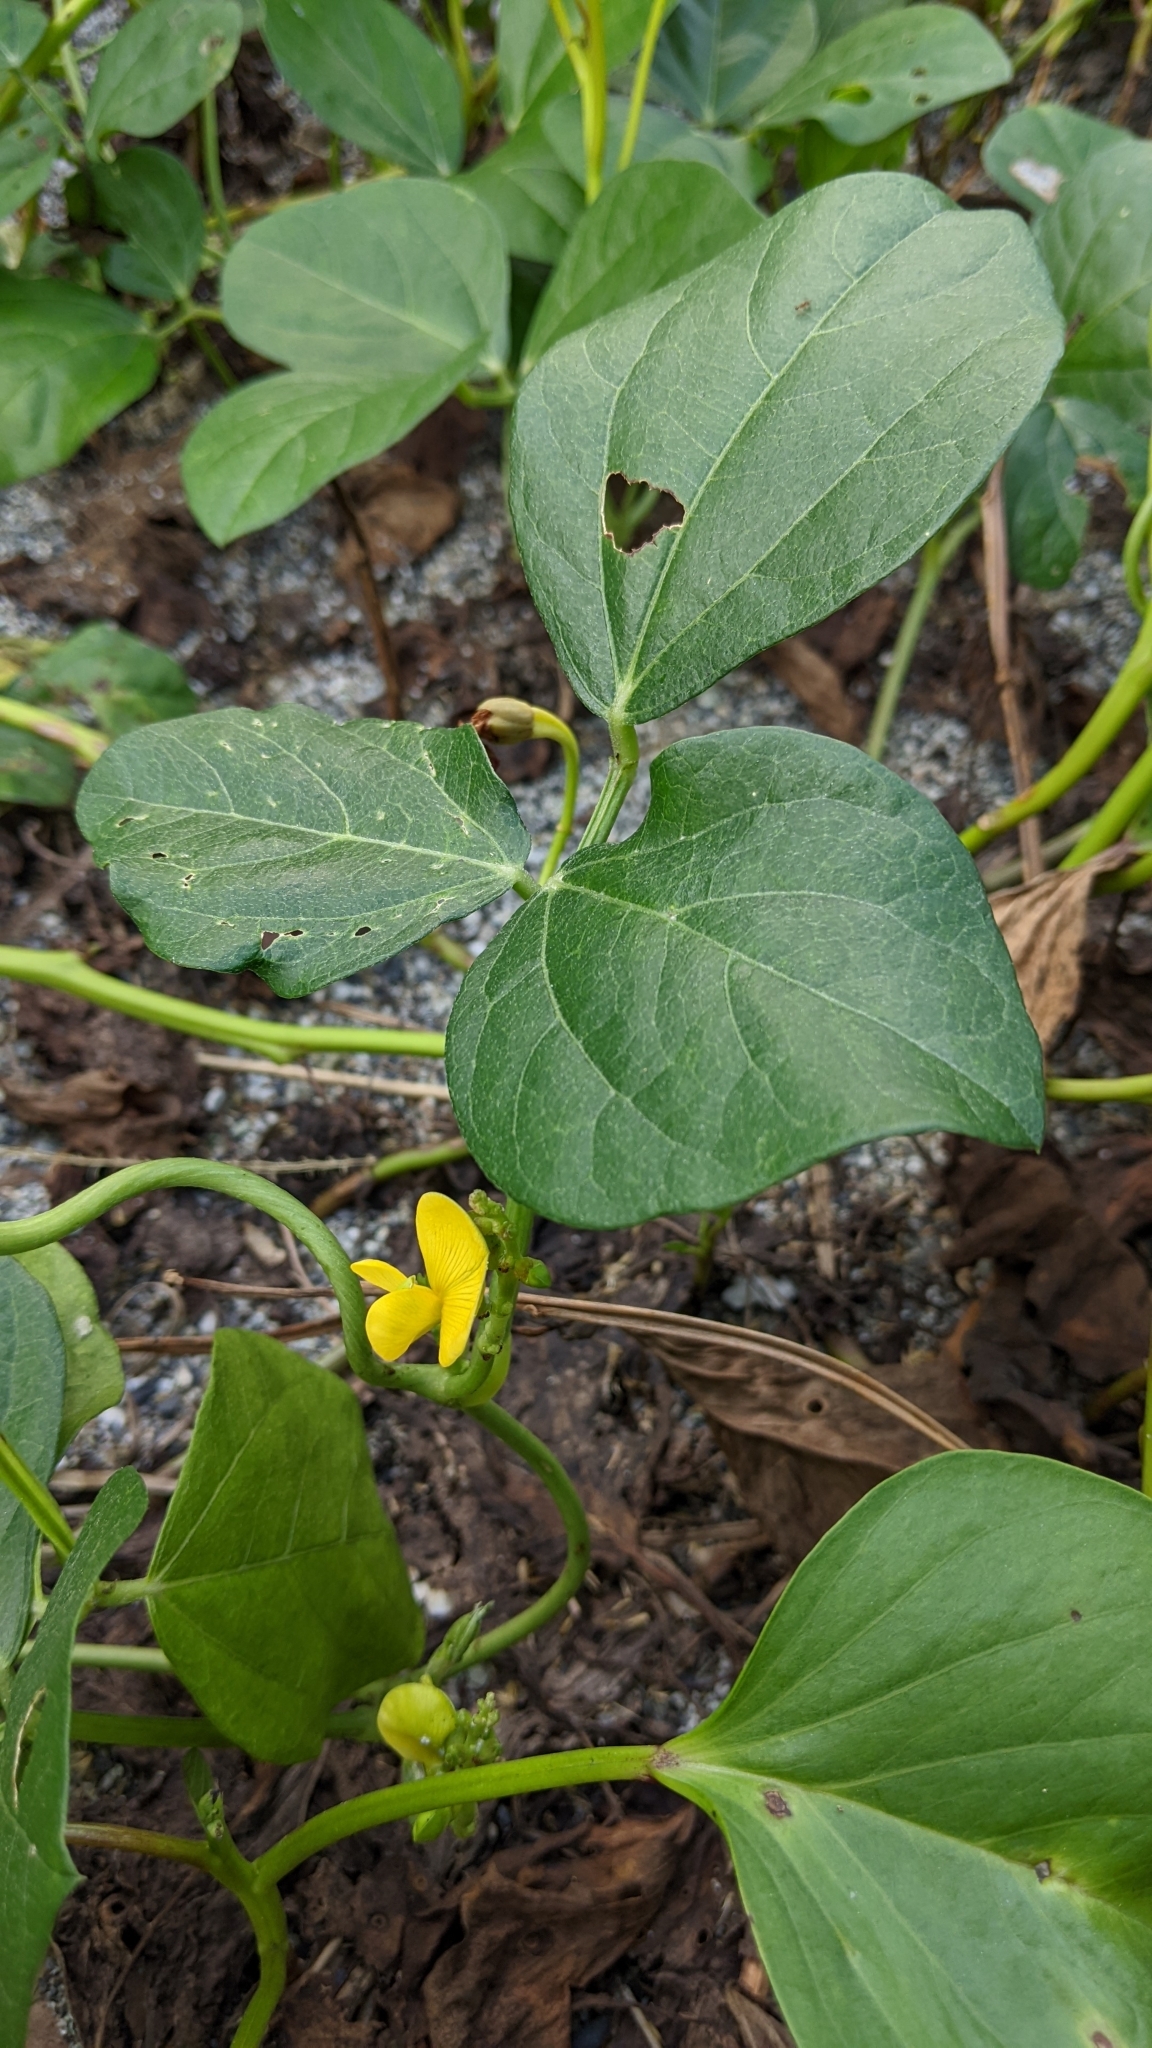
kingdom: Plantae
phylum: Tracheophyta
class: Magnoliopsida
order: Fabales
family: Fabaceae
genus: Vigna
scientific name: Vigna marina
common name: Dune-bean
